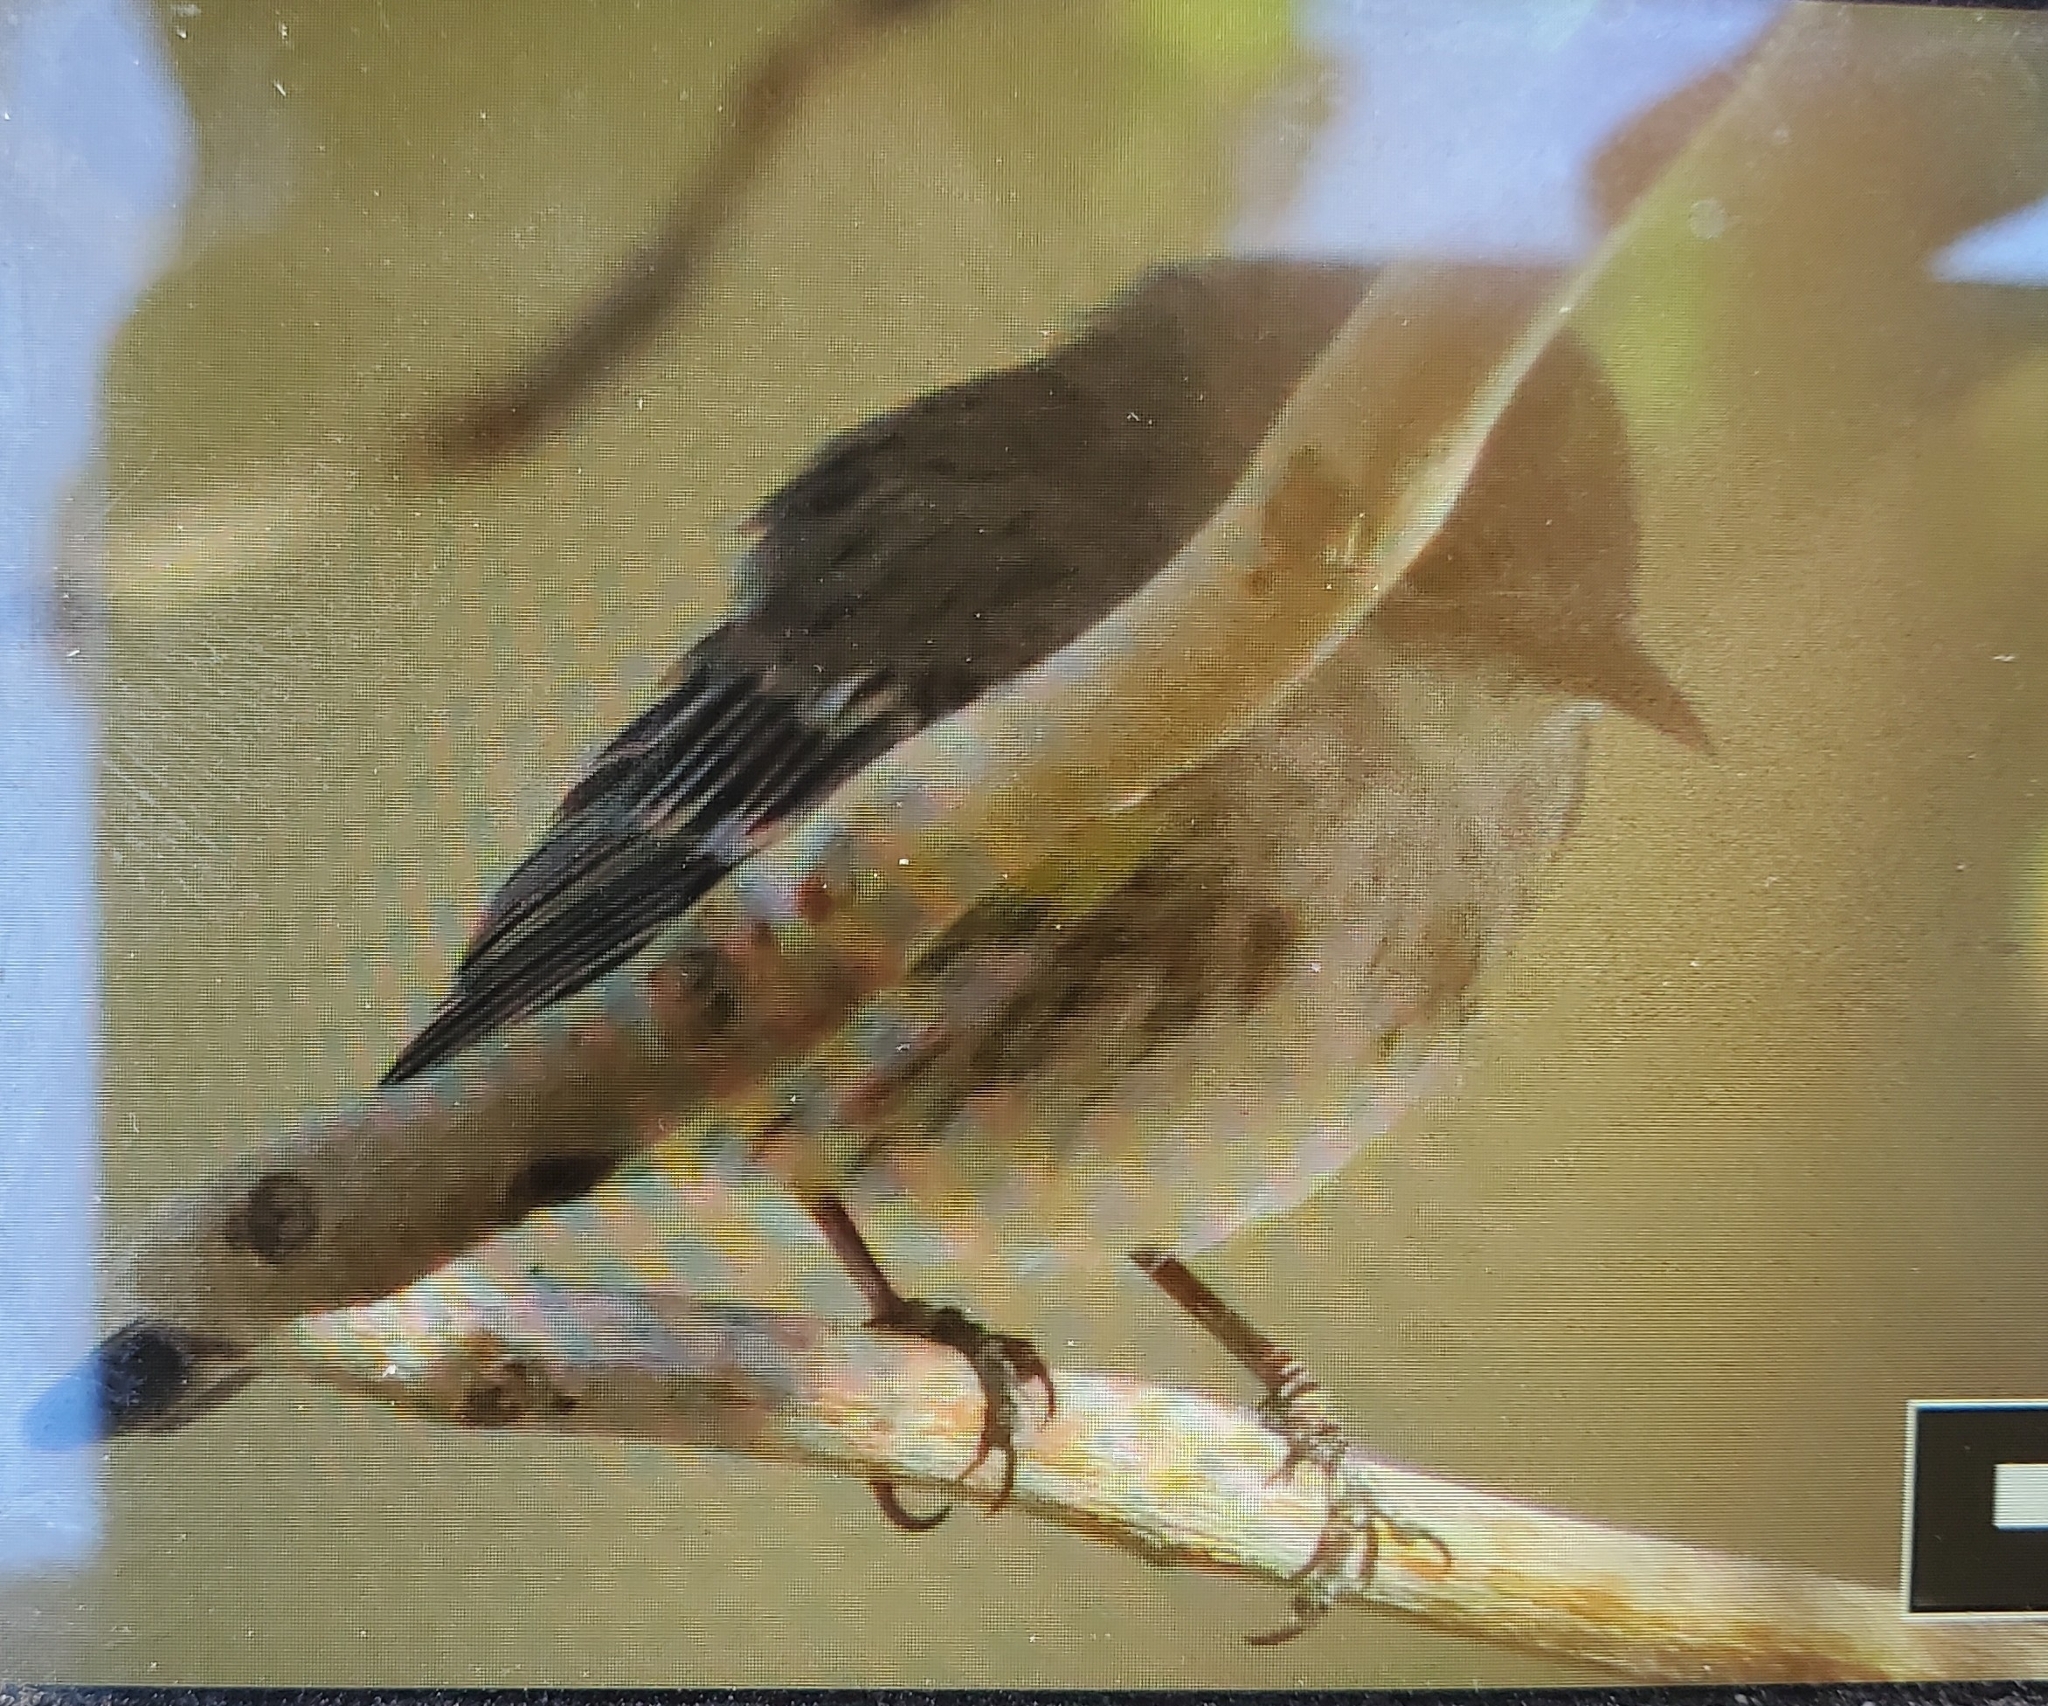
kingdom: Animalia
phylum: Chordata
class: Aves
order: Passeriformes
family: Parulidae
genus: Setophaga
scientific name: Setophaga coronata
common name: Myrtle warbler
